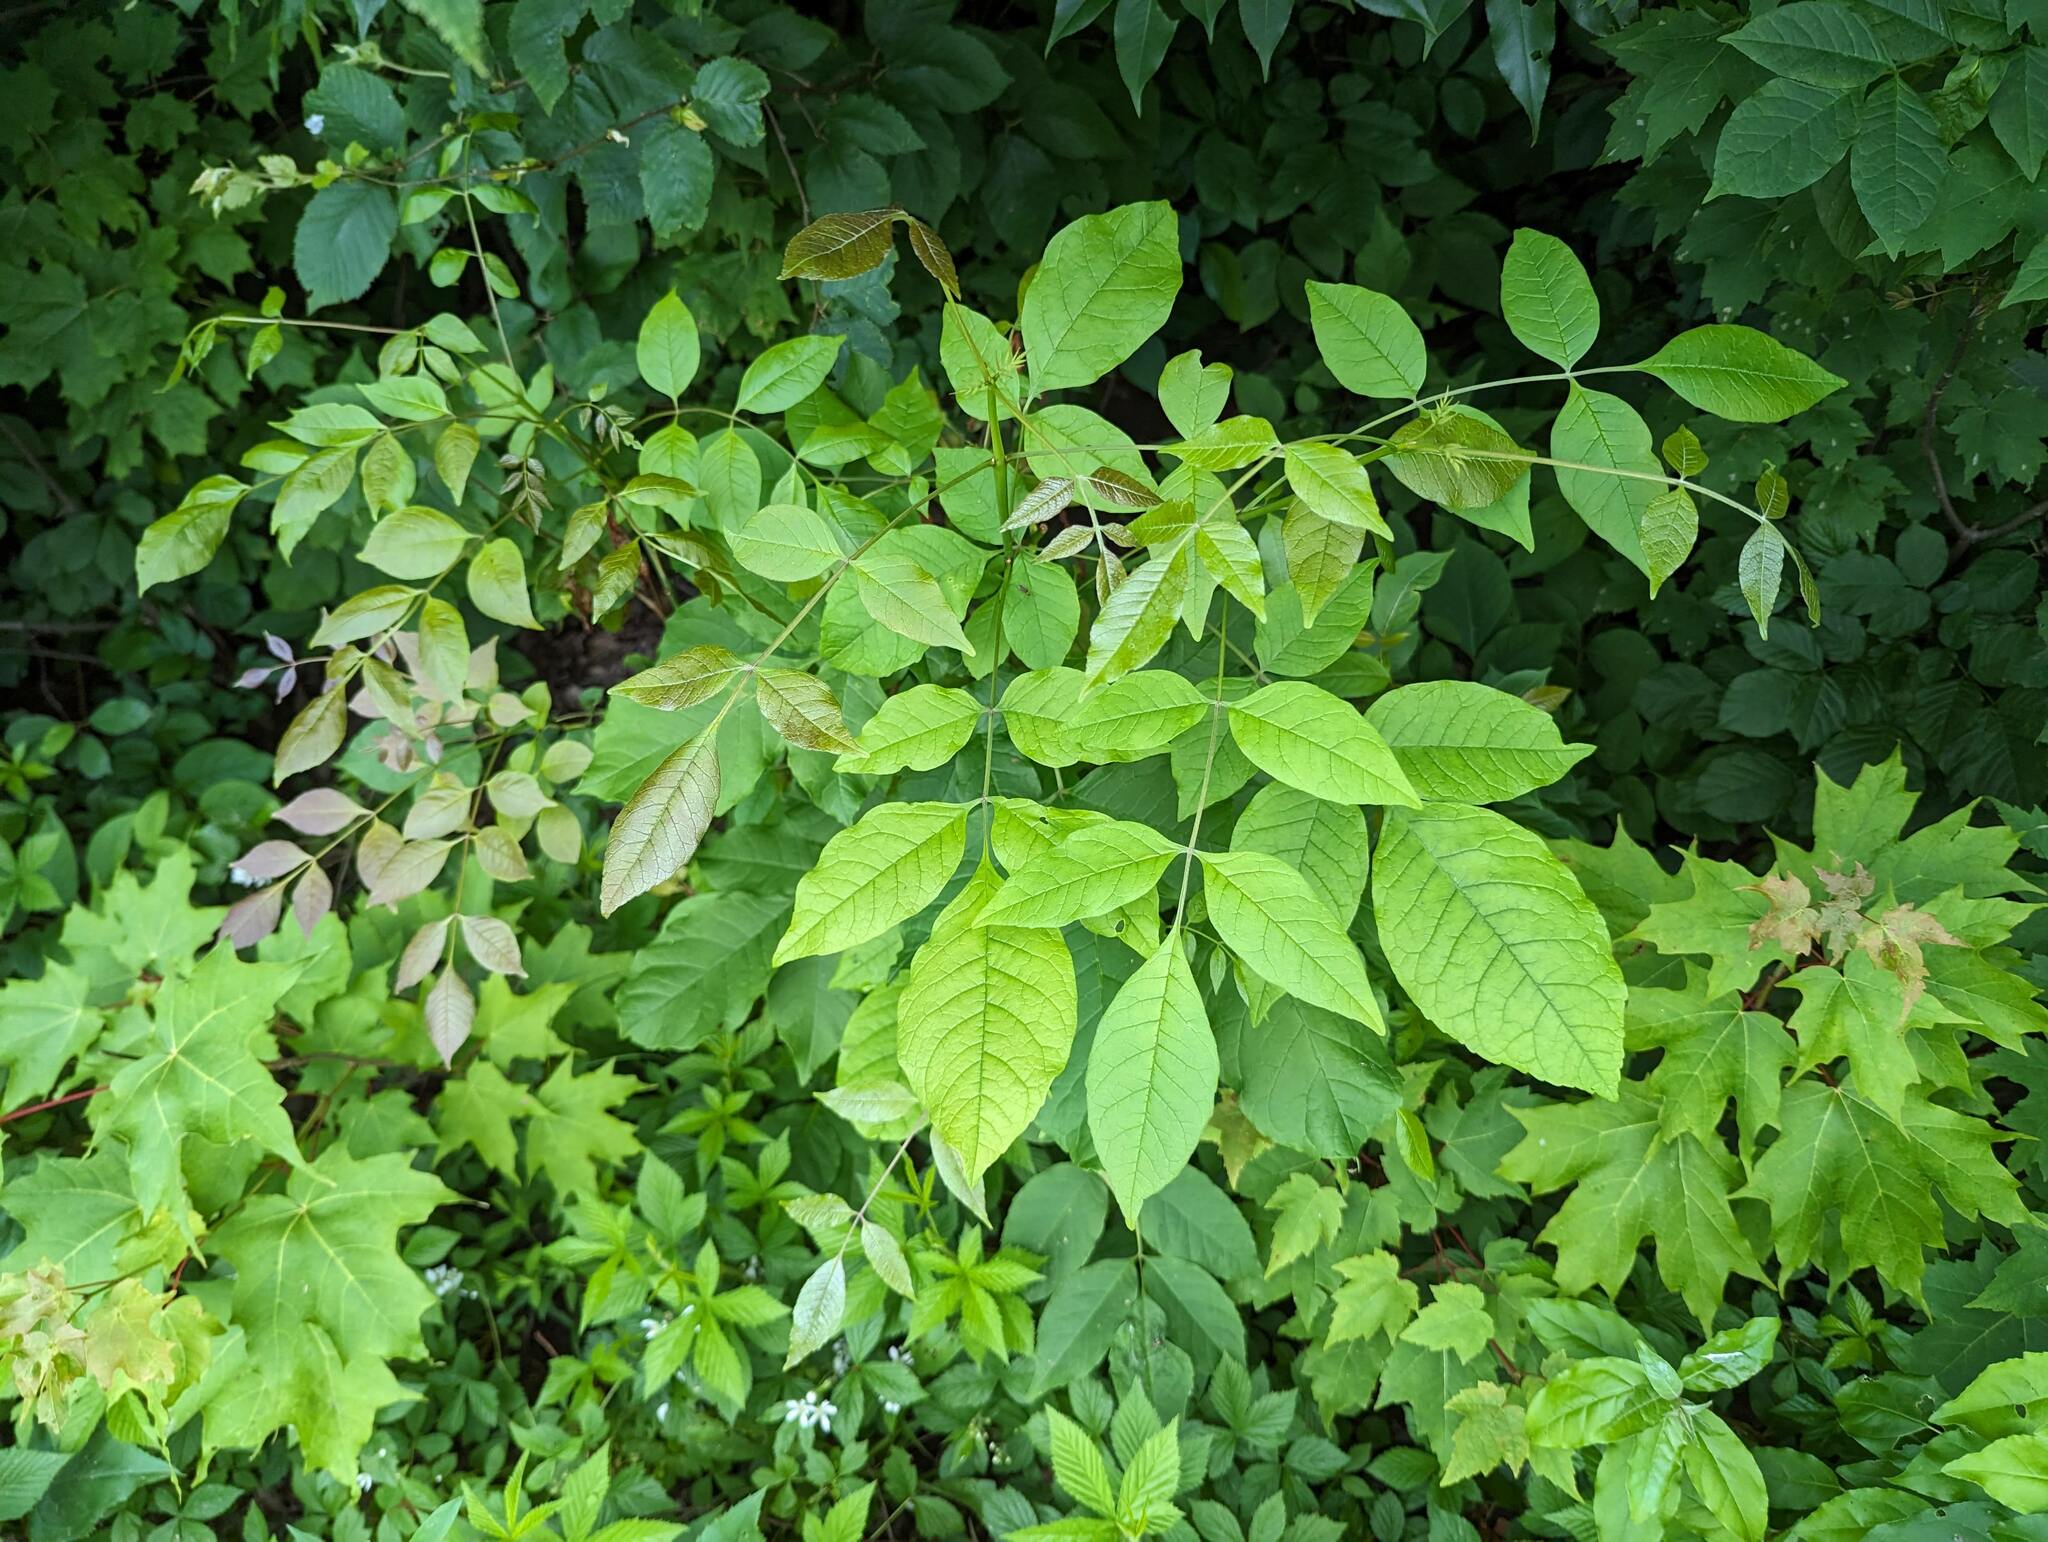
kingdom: Plantae
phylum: Tracheophyta
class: Magnoliopsida
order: Lamiales
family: Oleaceae
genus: Fraxinus
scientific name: Fraxinus americana
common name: White ash
